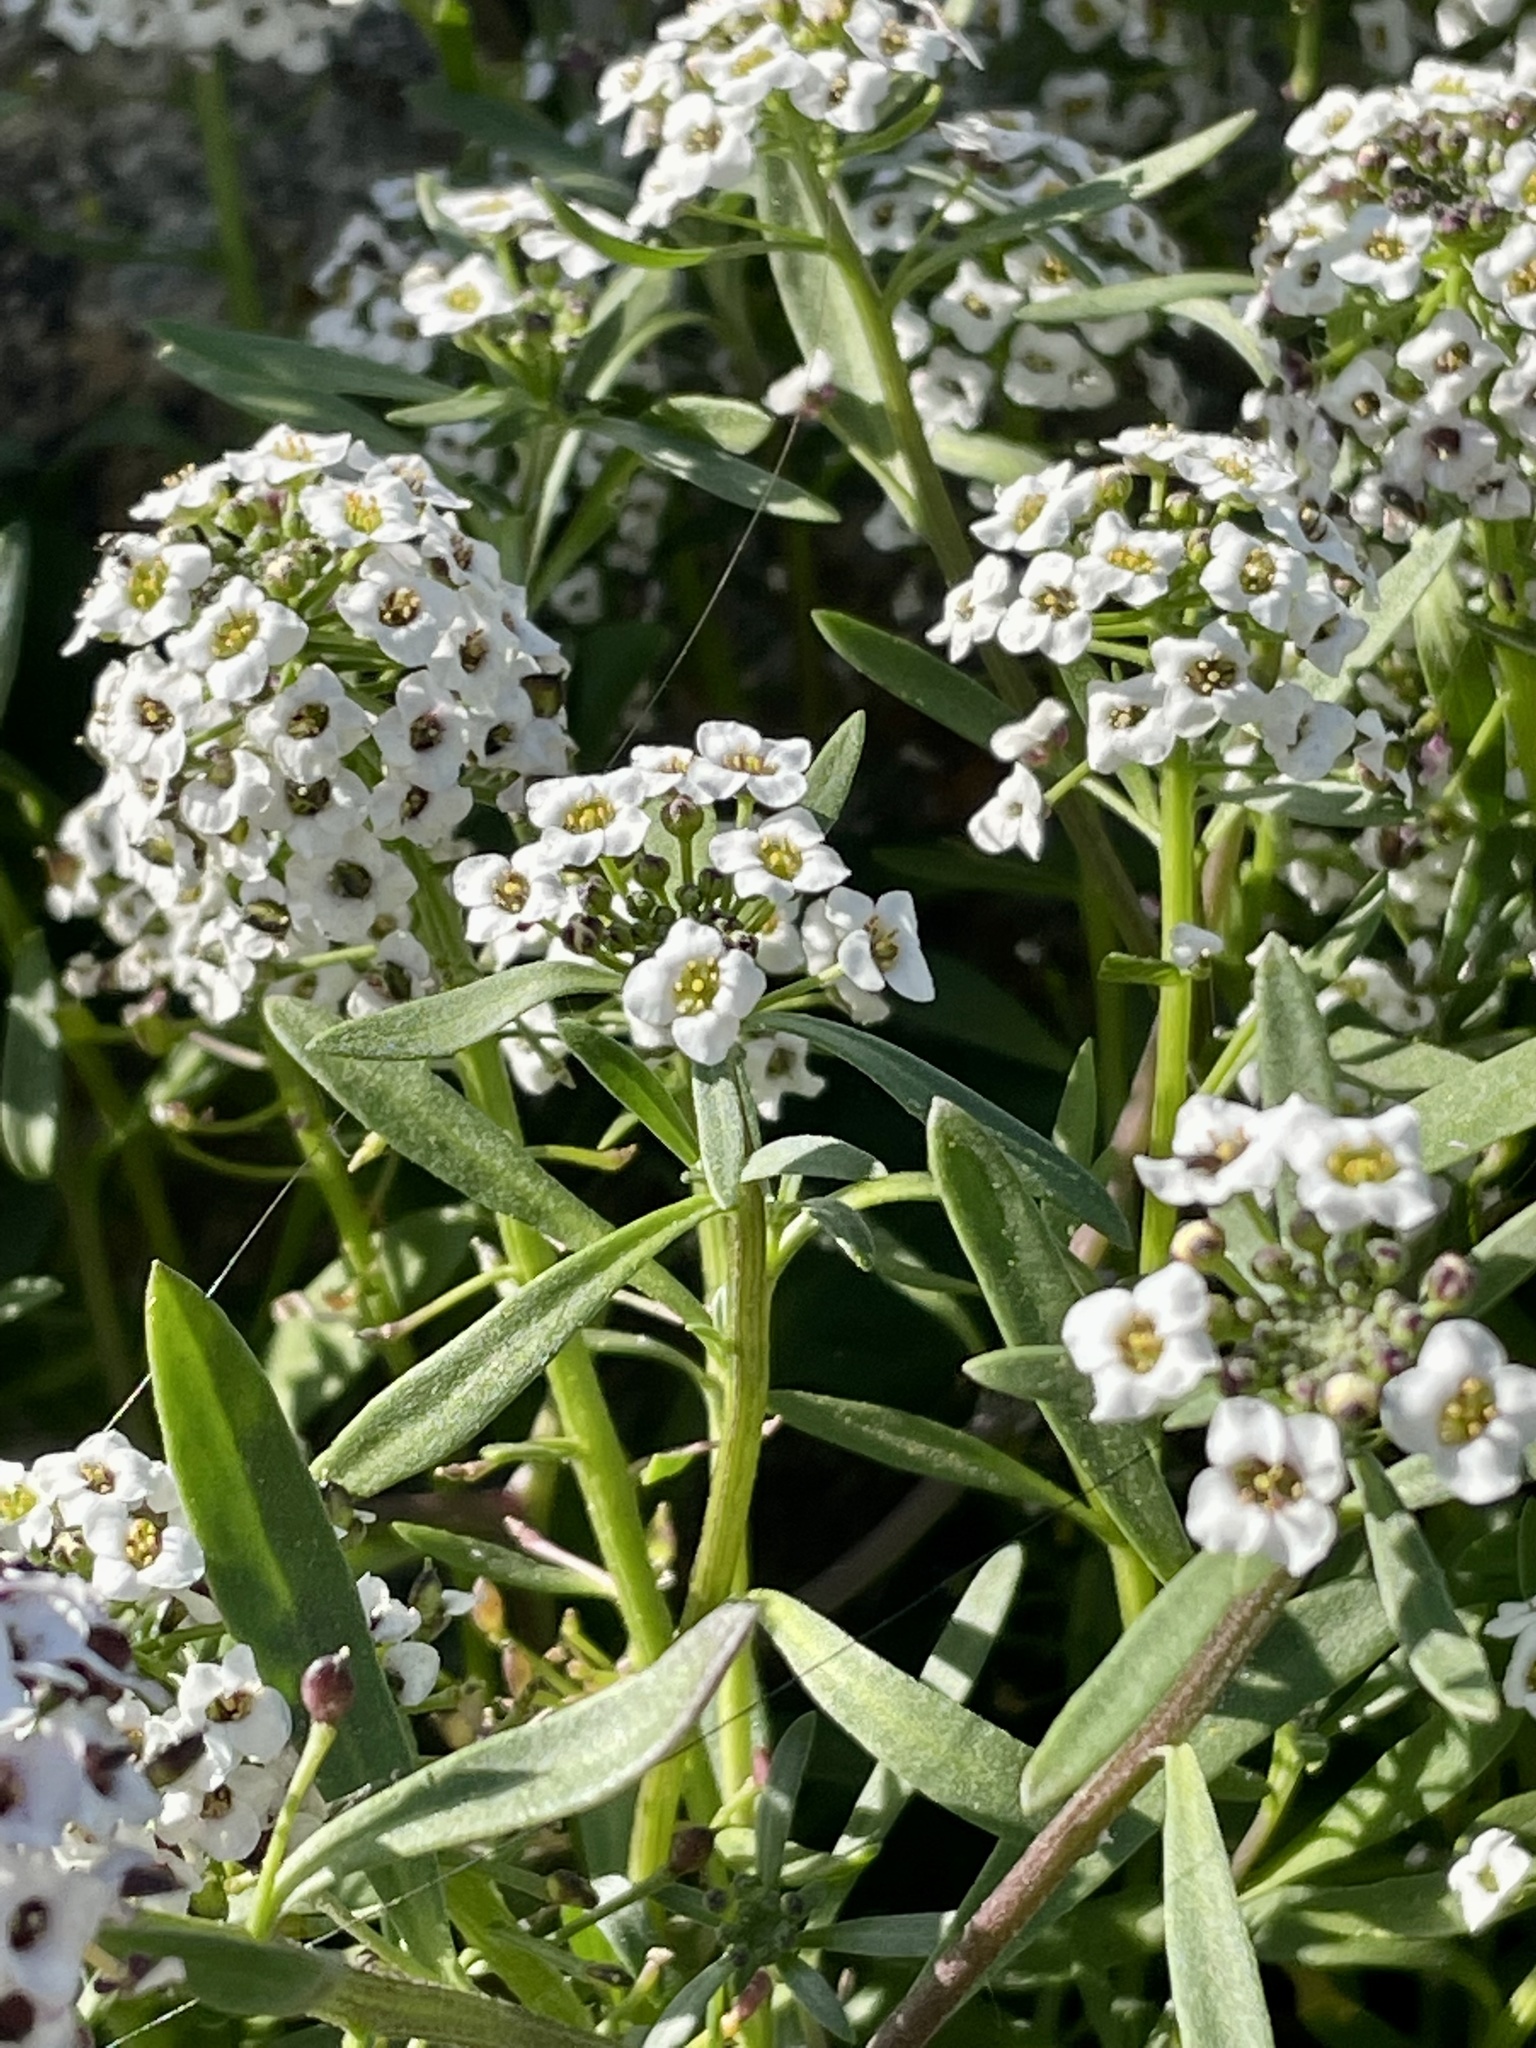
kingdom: Plantae
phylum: Tracheophyta
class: Magnoliopsida
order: Brassicales
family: Brassicaceae
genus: Lobularia
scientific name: Lobularia maritima
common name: Sweet alison
